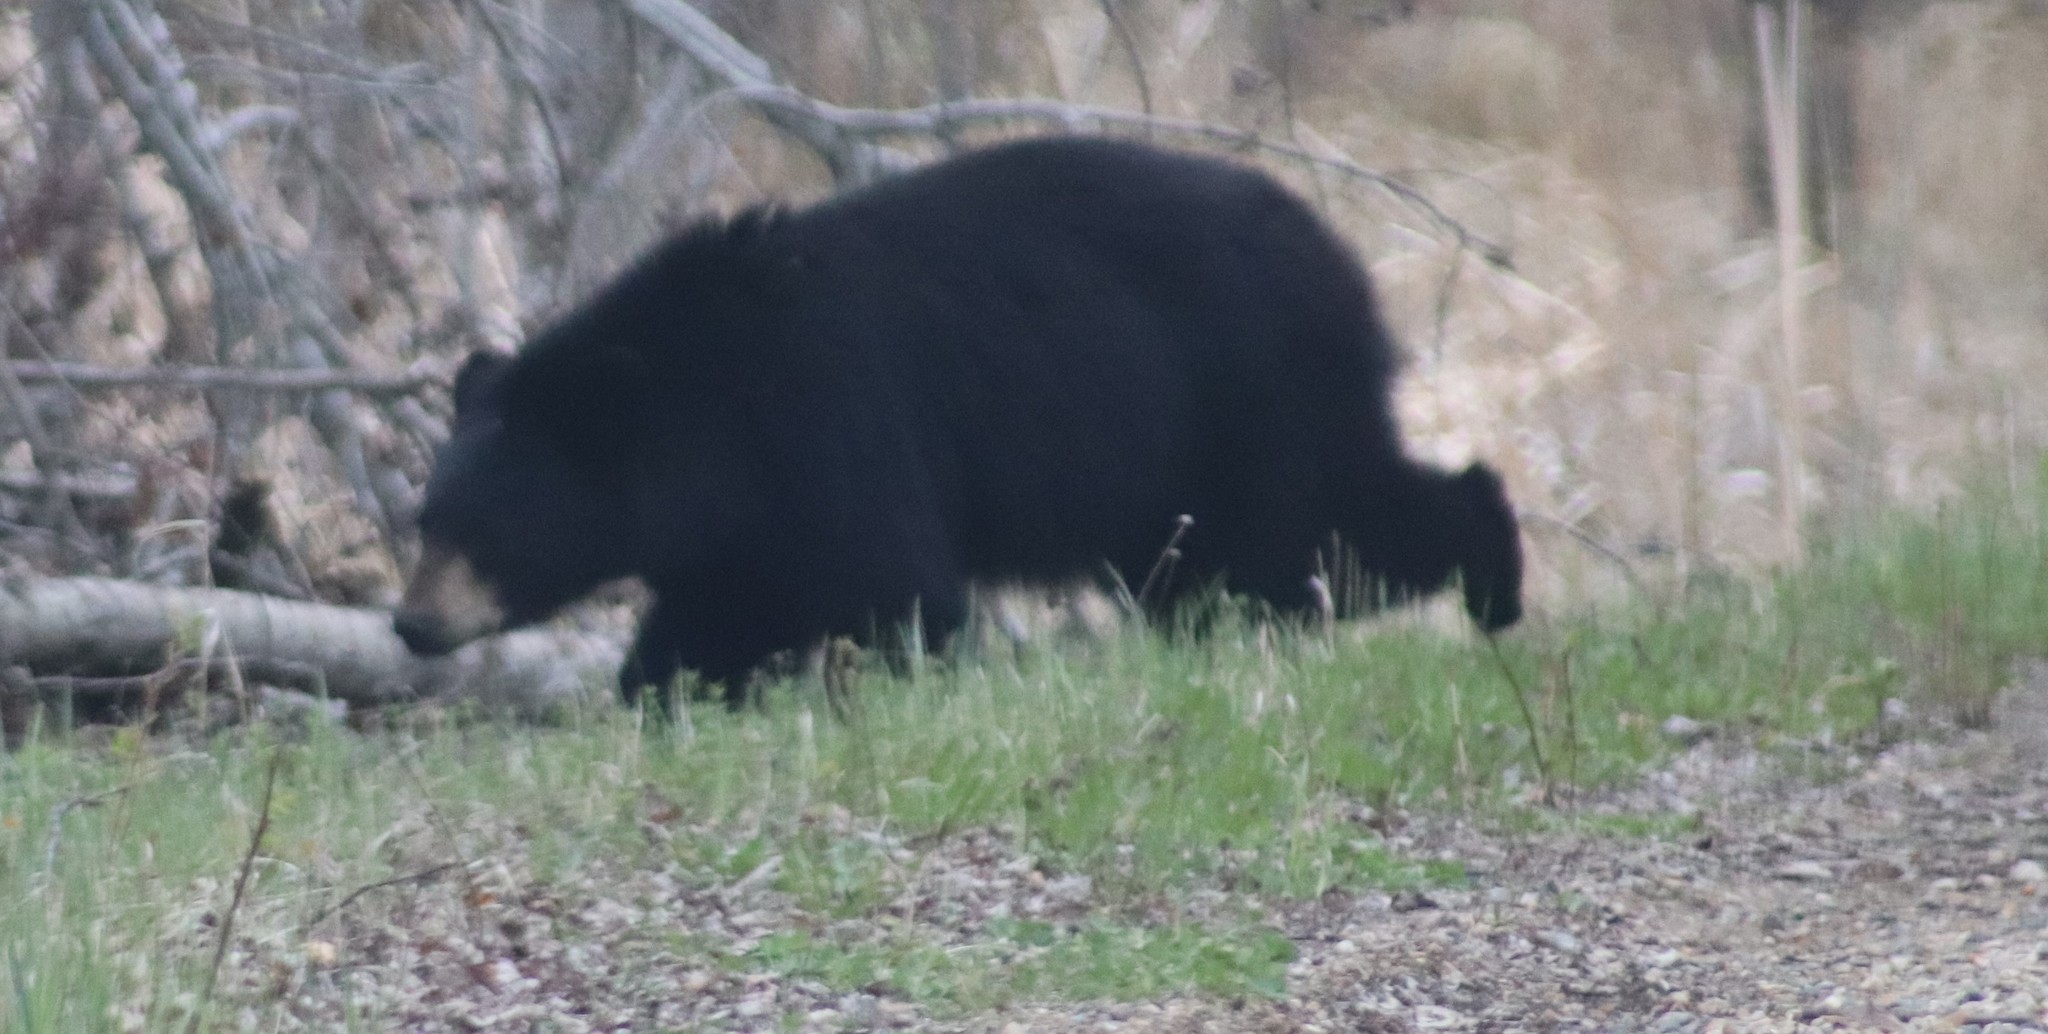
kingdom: Animalia
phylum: Chordata
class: Mammalia
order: Carnivora
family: Ursidae
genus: Ursus
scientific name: Ursus americanus
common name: American black bear
